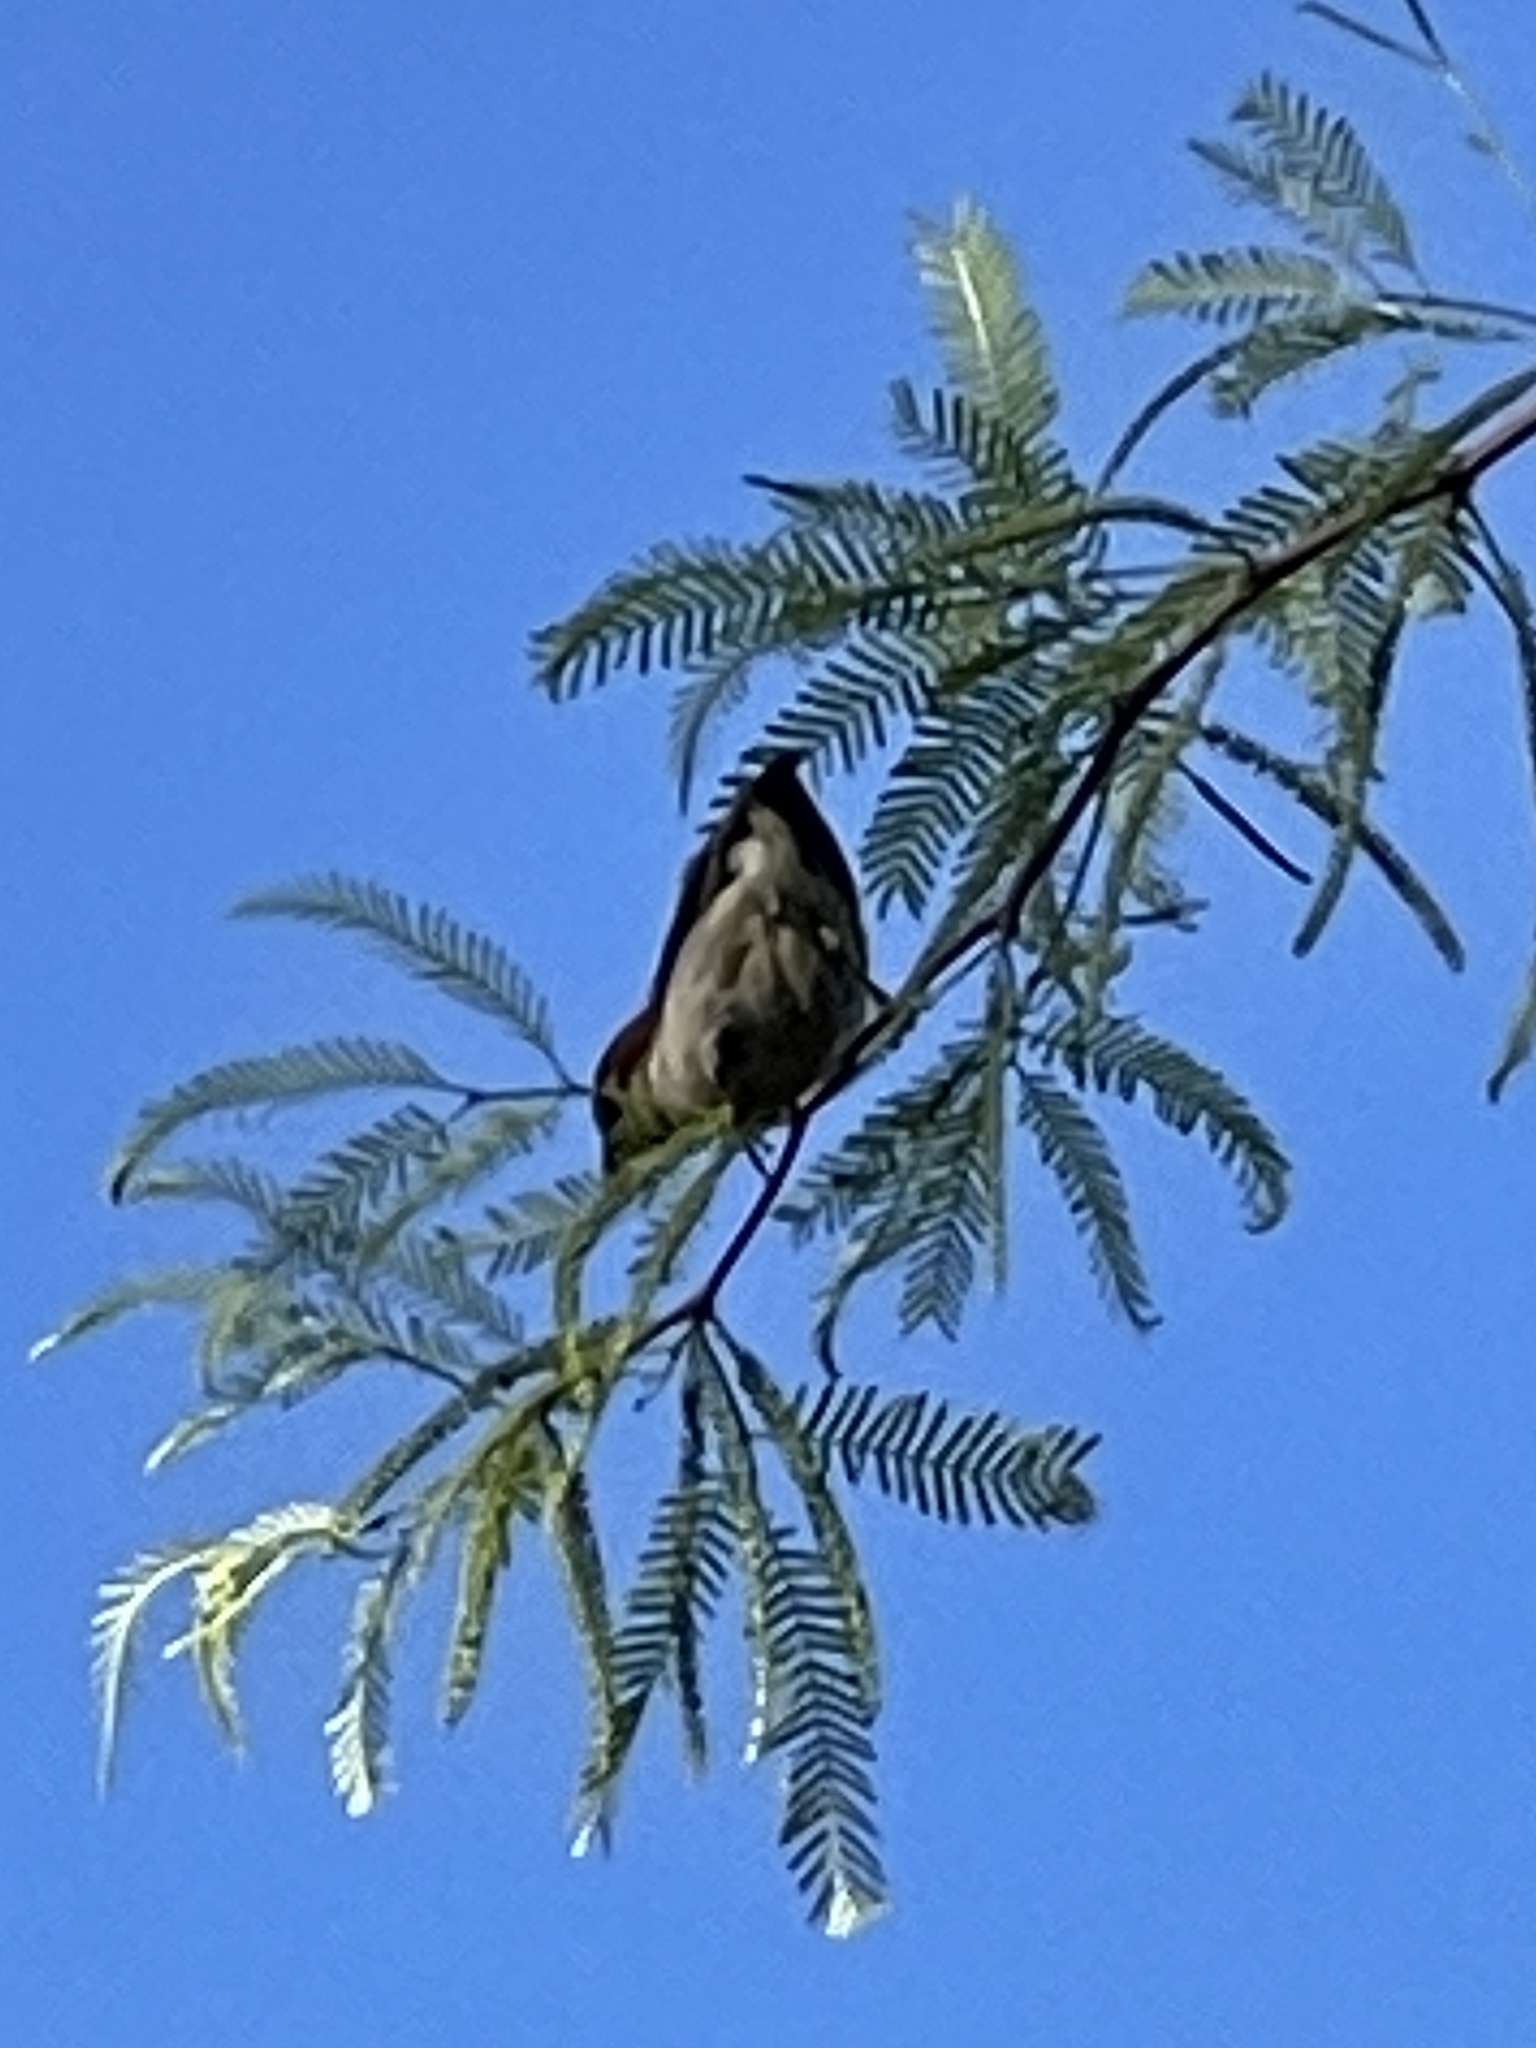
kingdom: Animalia
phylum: Chordata
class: Aves
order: Passeriformes
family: Passeridae
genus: Passer
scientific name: Passer domesticus
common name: House sparrow
